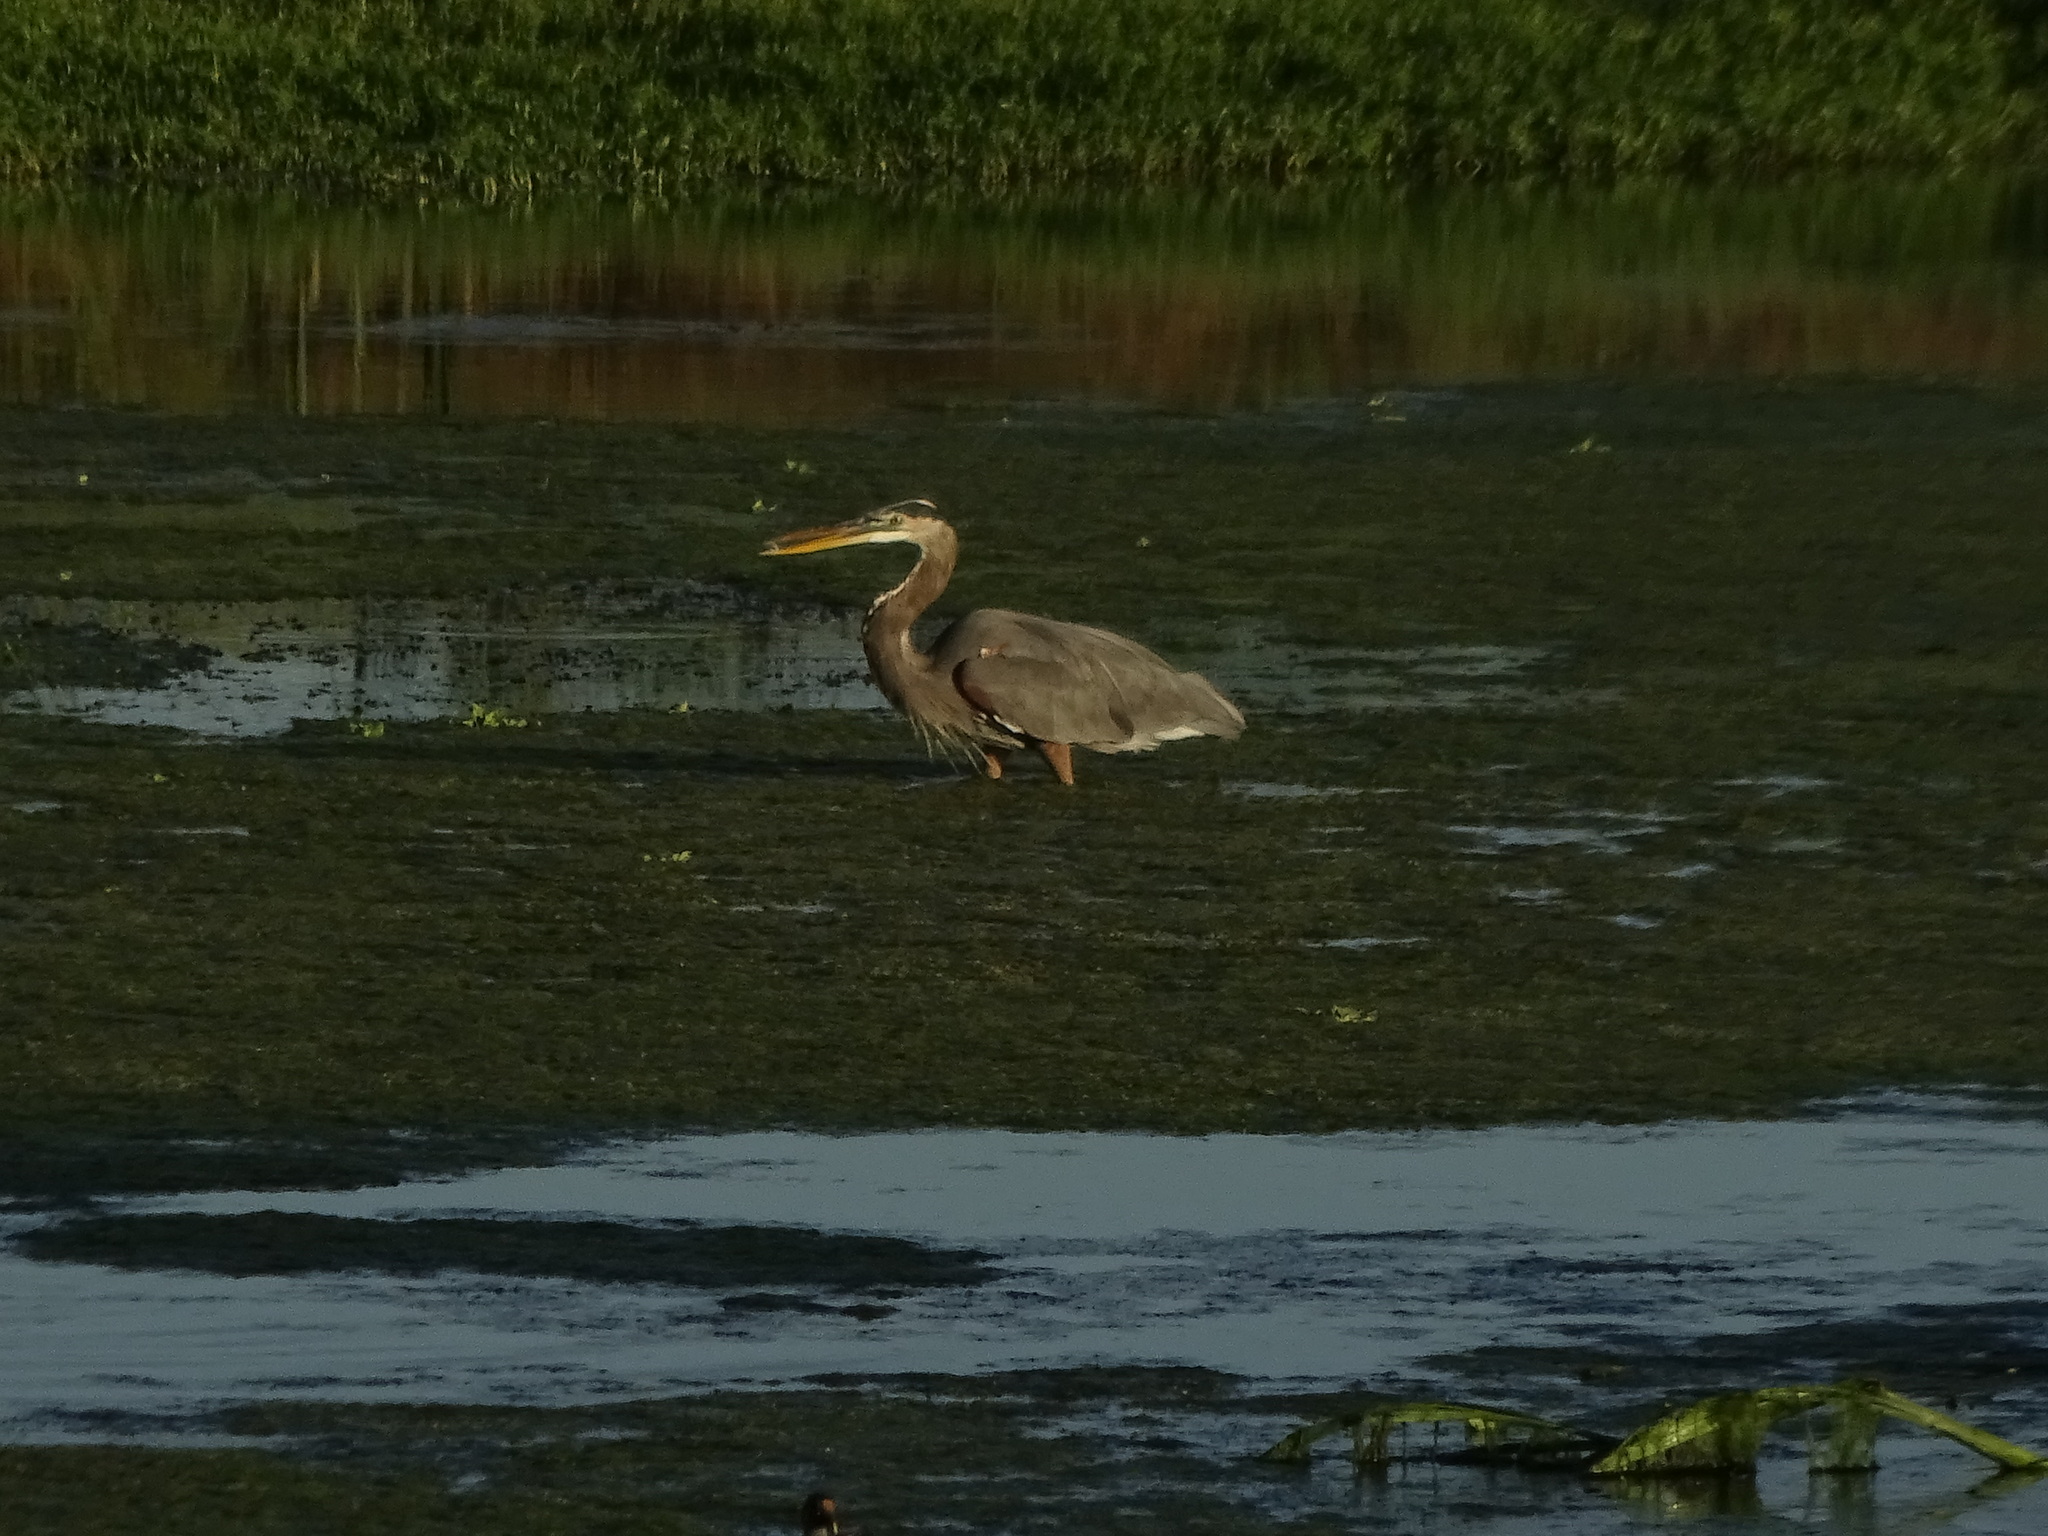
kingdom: Animalia
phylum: Chordata
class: Aves
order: Pelecaniformes
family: Ardeidae
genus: Ardea
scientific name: Ardea herodias
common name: Great blue heron
